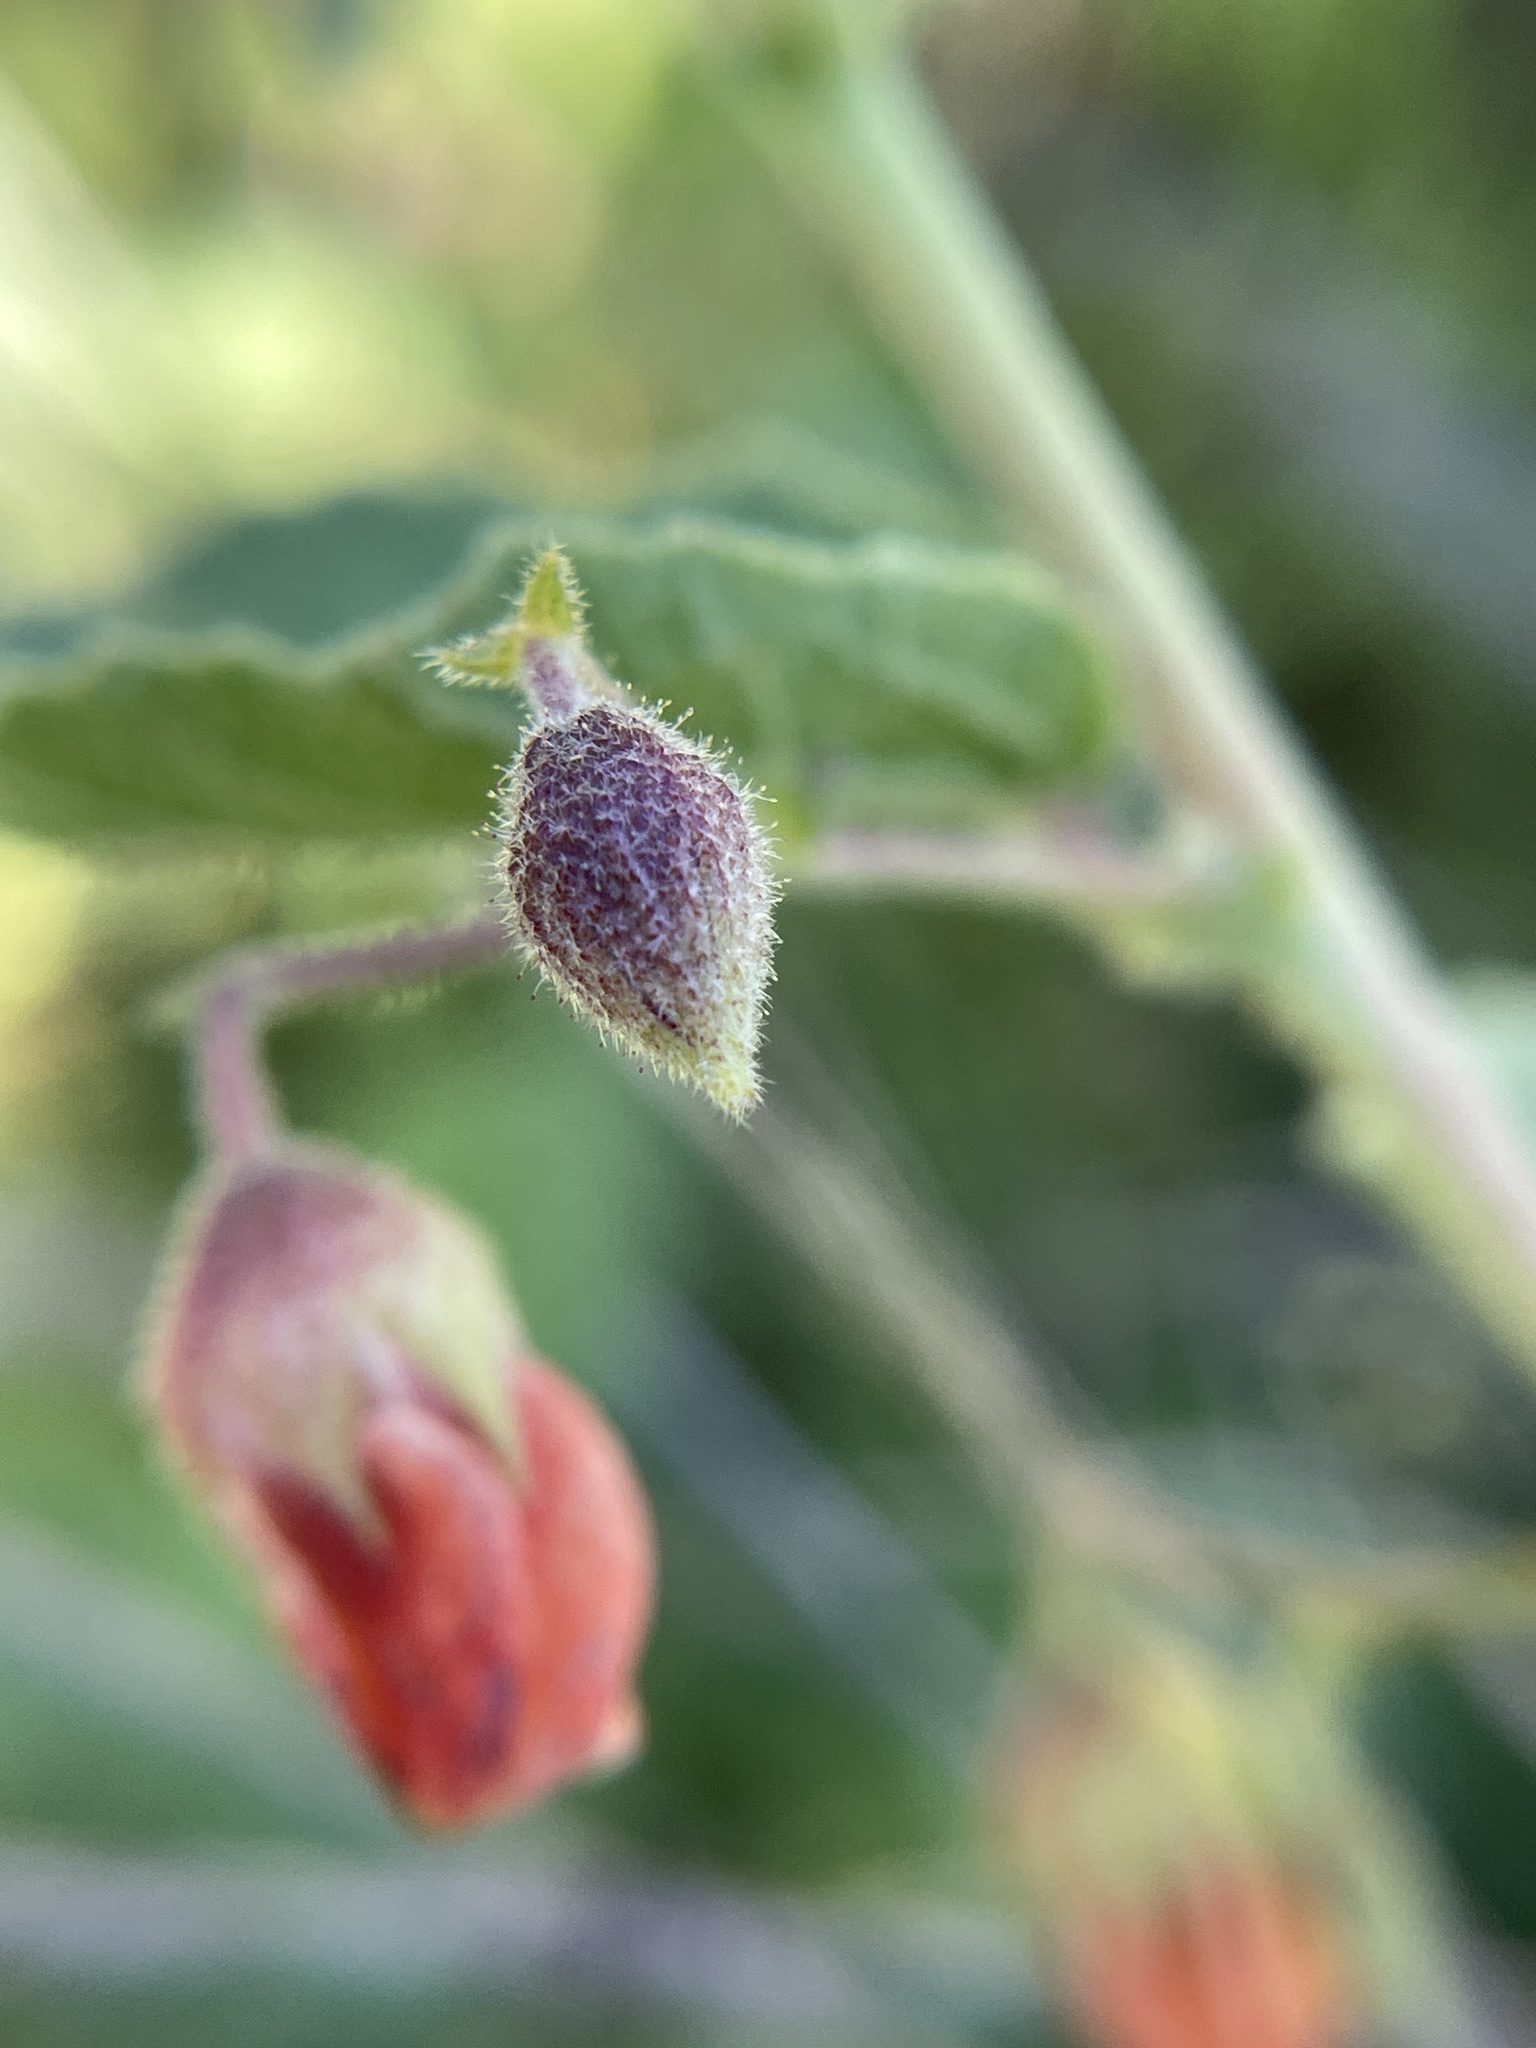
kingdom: Plantae
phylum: Tracheophyta
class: Magnoliopsida
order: Malvales
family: Malvaceae
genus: Hermannia
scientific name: Hermannia texana
